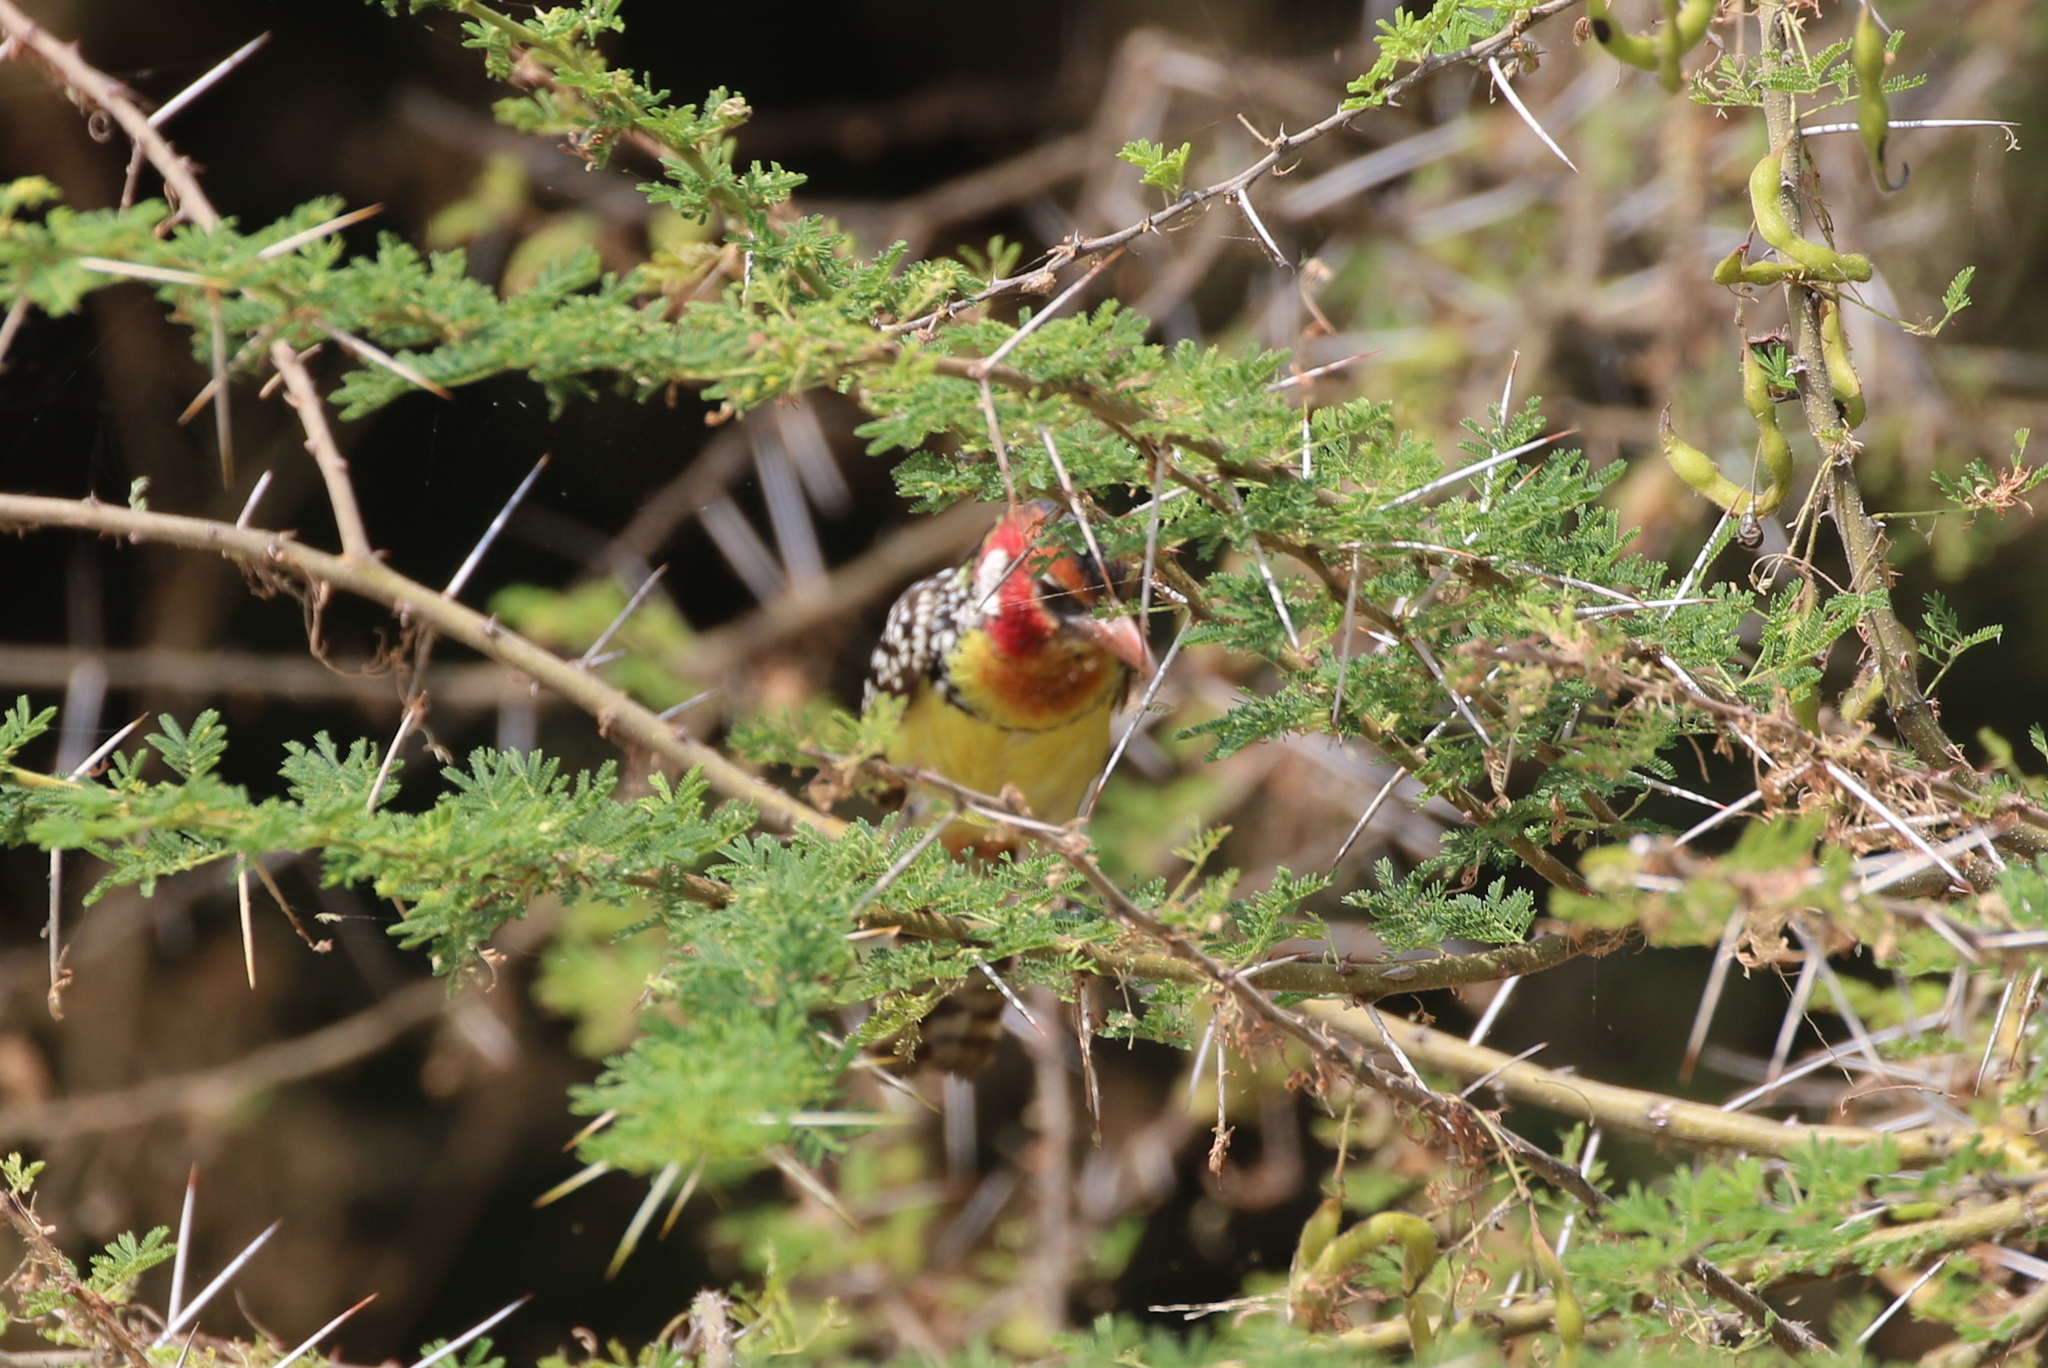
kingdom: Animalia
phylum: Chordata
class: Aves
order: Piciformes
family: Lybiidae
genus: Trachyphonus
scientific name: Trachyphonus erythrocephalus
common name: Red-and-yellow barbet
